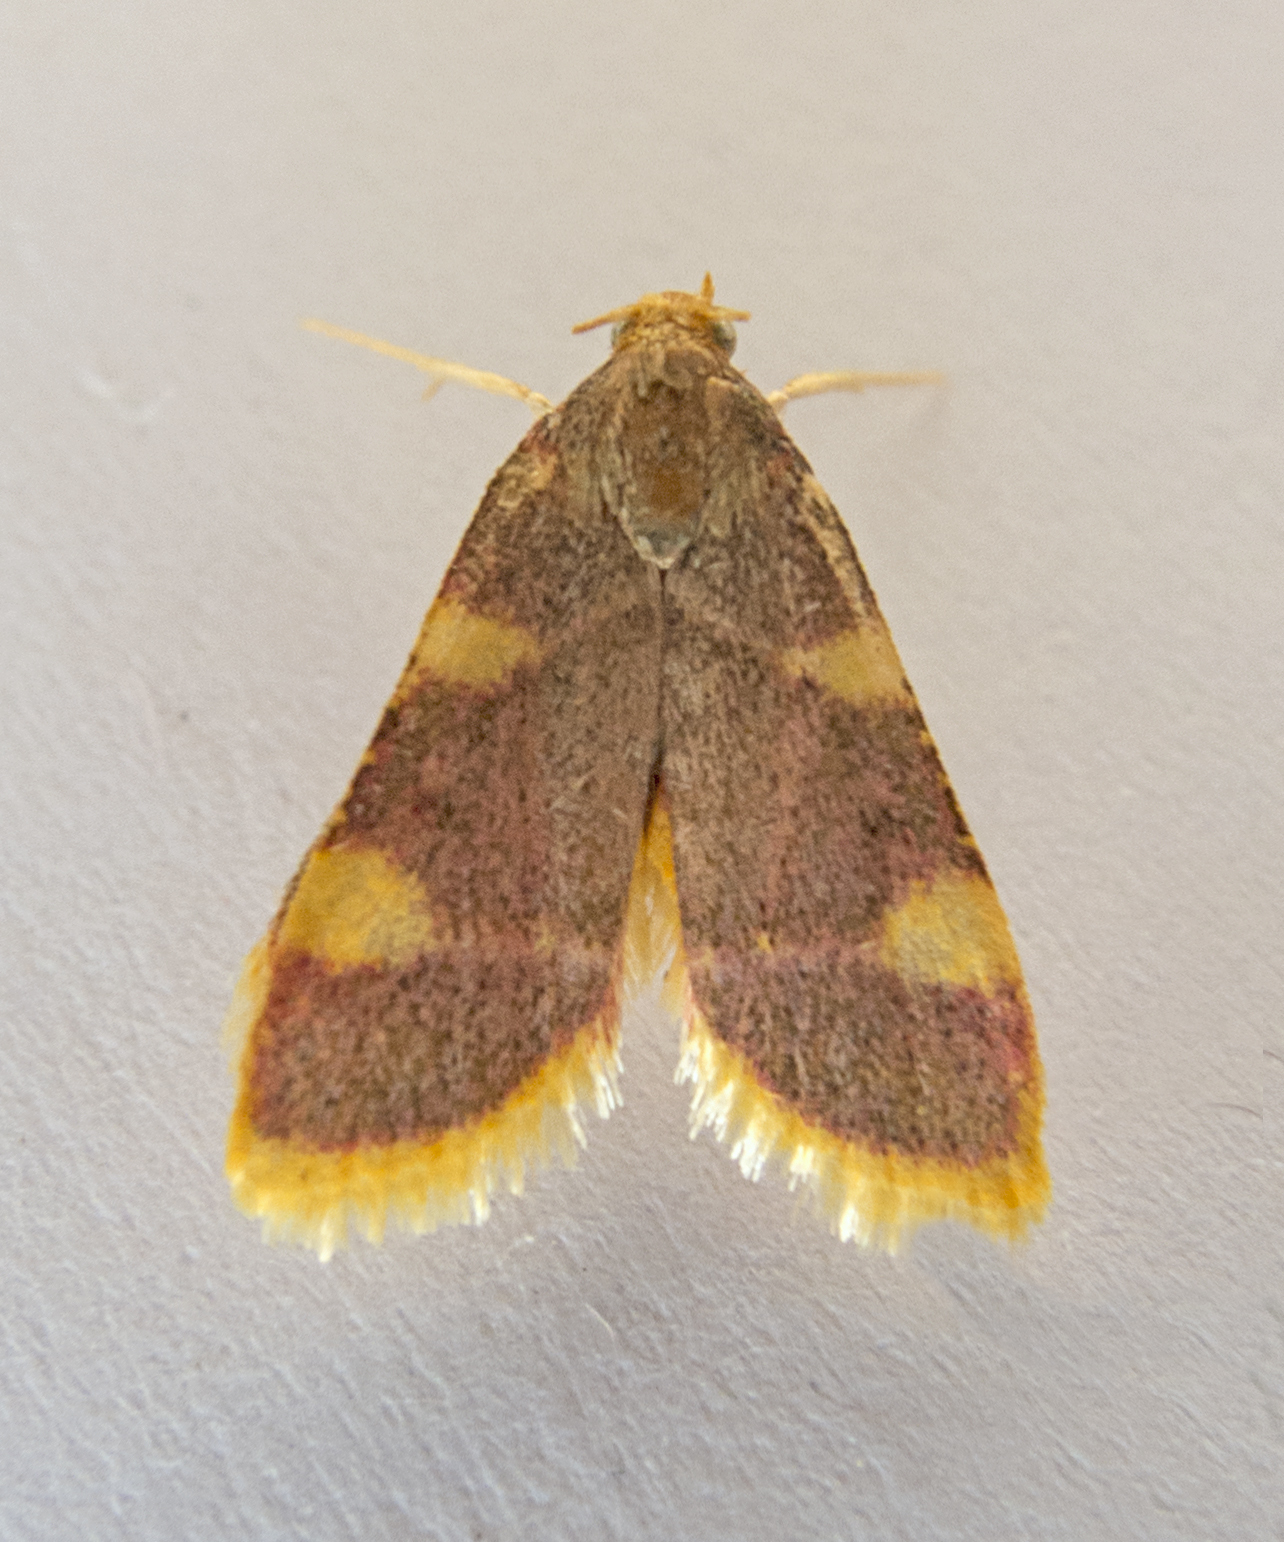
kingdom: Animalia
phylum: Arthropoda
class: Insecta
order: Lepidoptera
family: Pyralidae
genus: Hypsopygia
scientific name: Hypsopygia costalis
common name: Gold triangle
